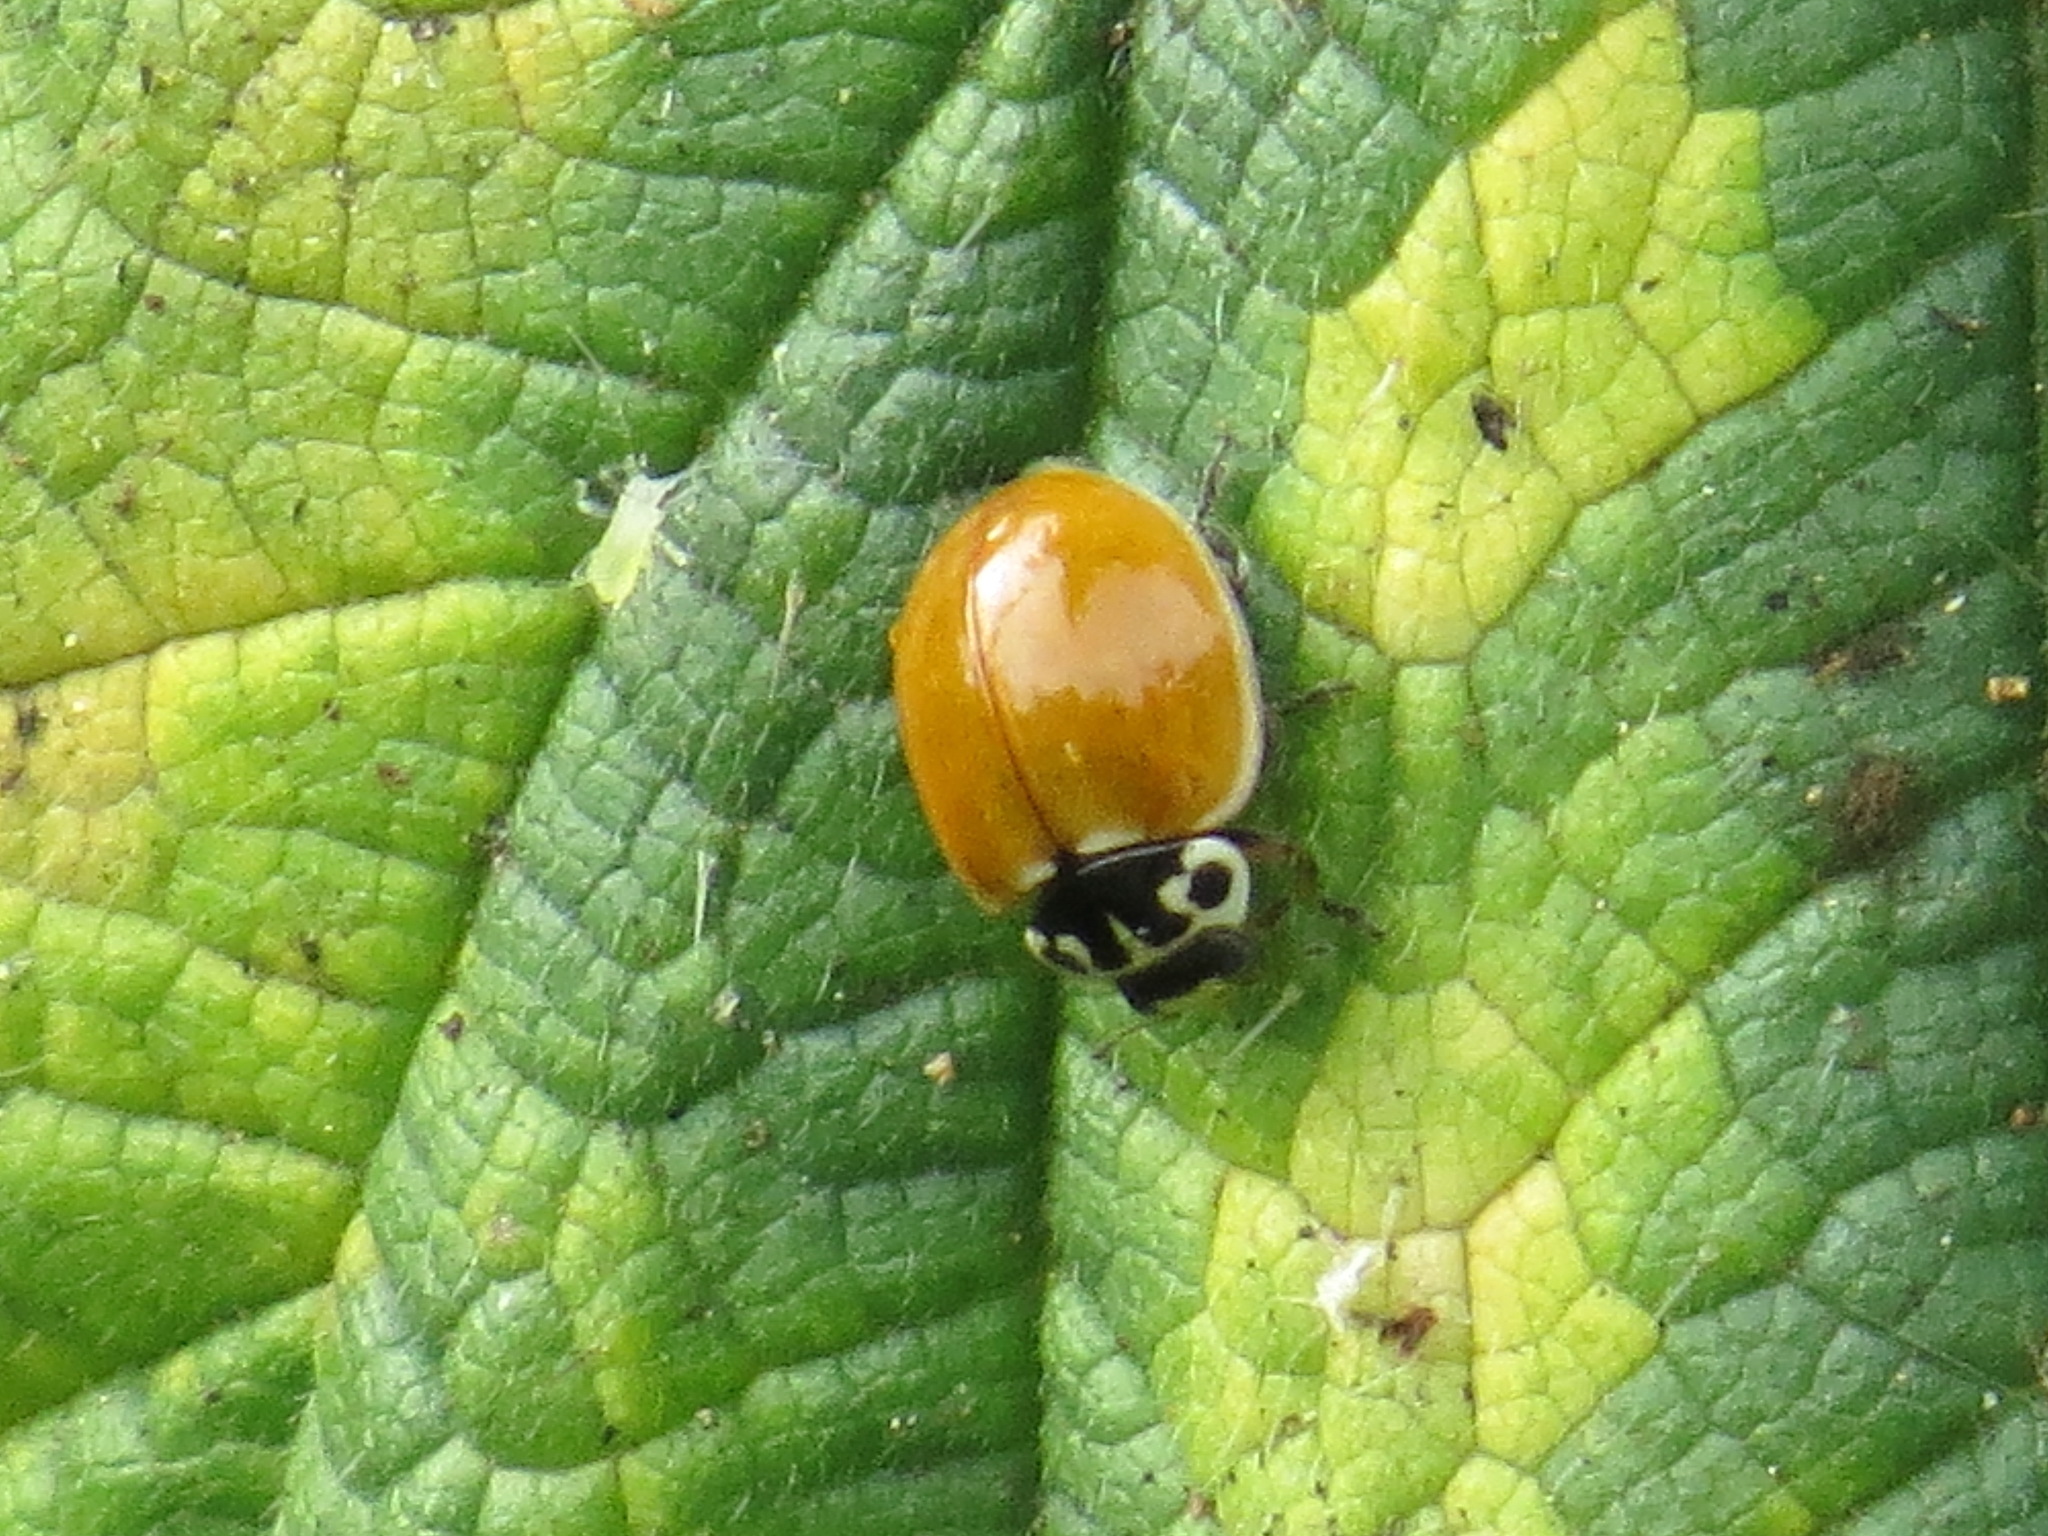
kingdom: Animalia
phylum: Arthropoda
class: Insecta
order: Coleoptera
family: Coccinellidae
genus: Cycloneda
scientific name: Cycloneda polita
